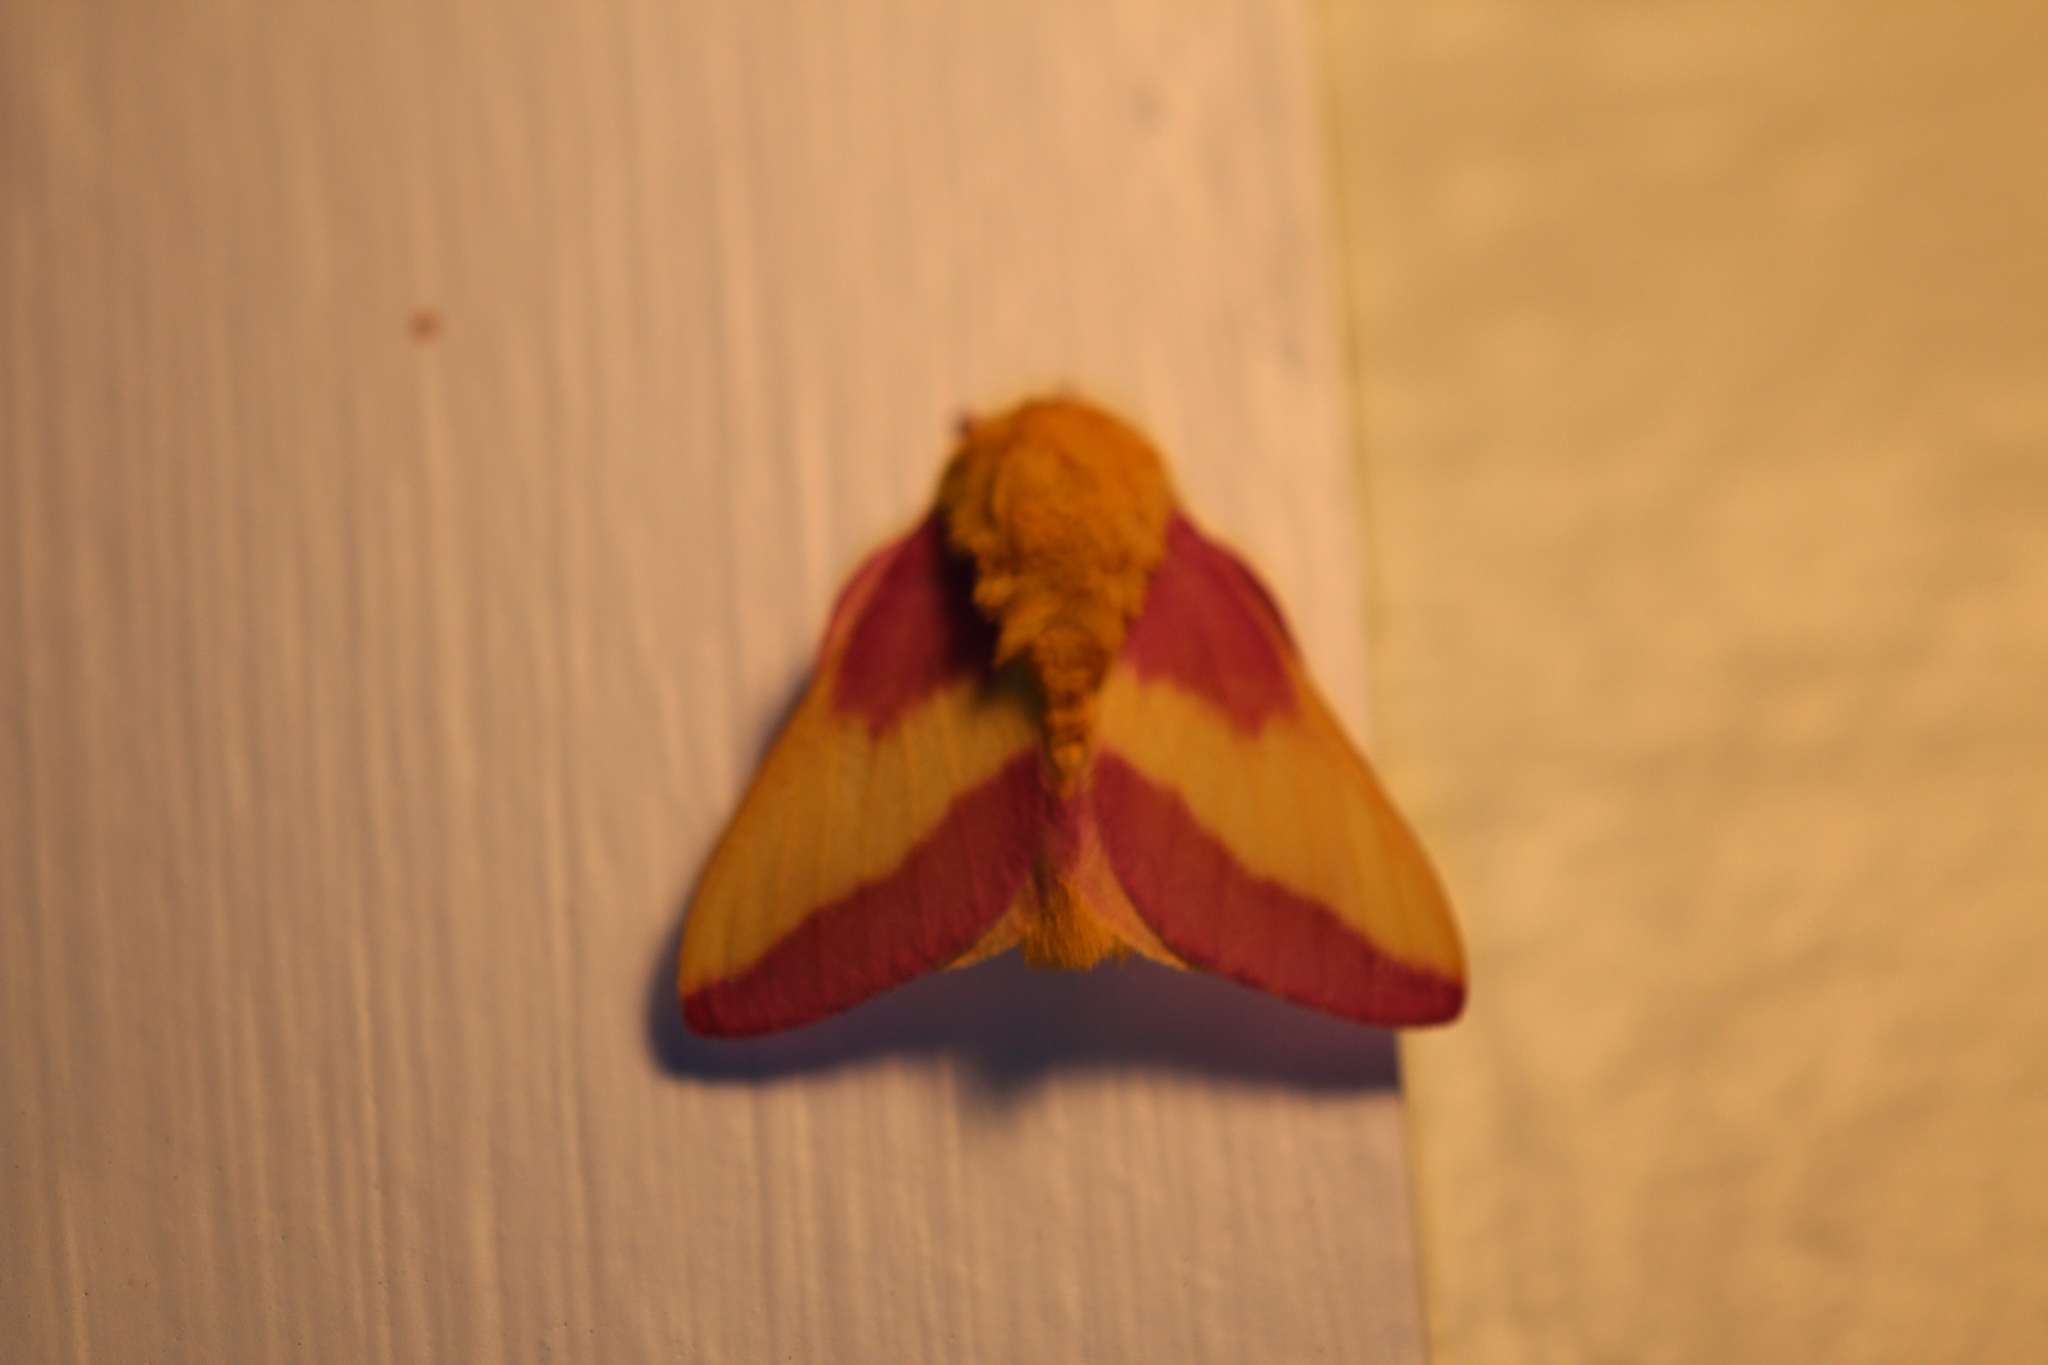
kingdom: Animalia
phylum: Arthropoda
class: Insecta
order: Lepidoptera
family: Saturniidae
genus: Dryocampa
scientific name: Dryocampa rubicunda
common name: Rosy maple moth
